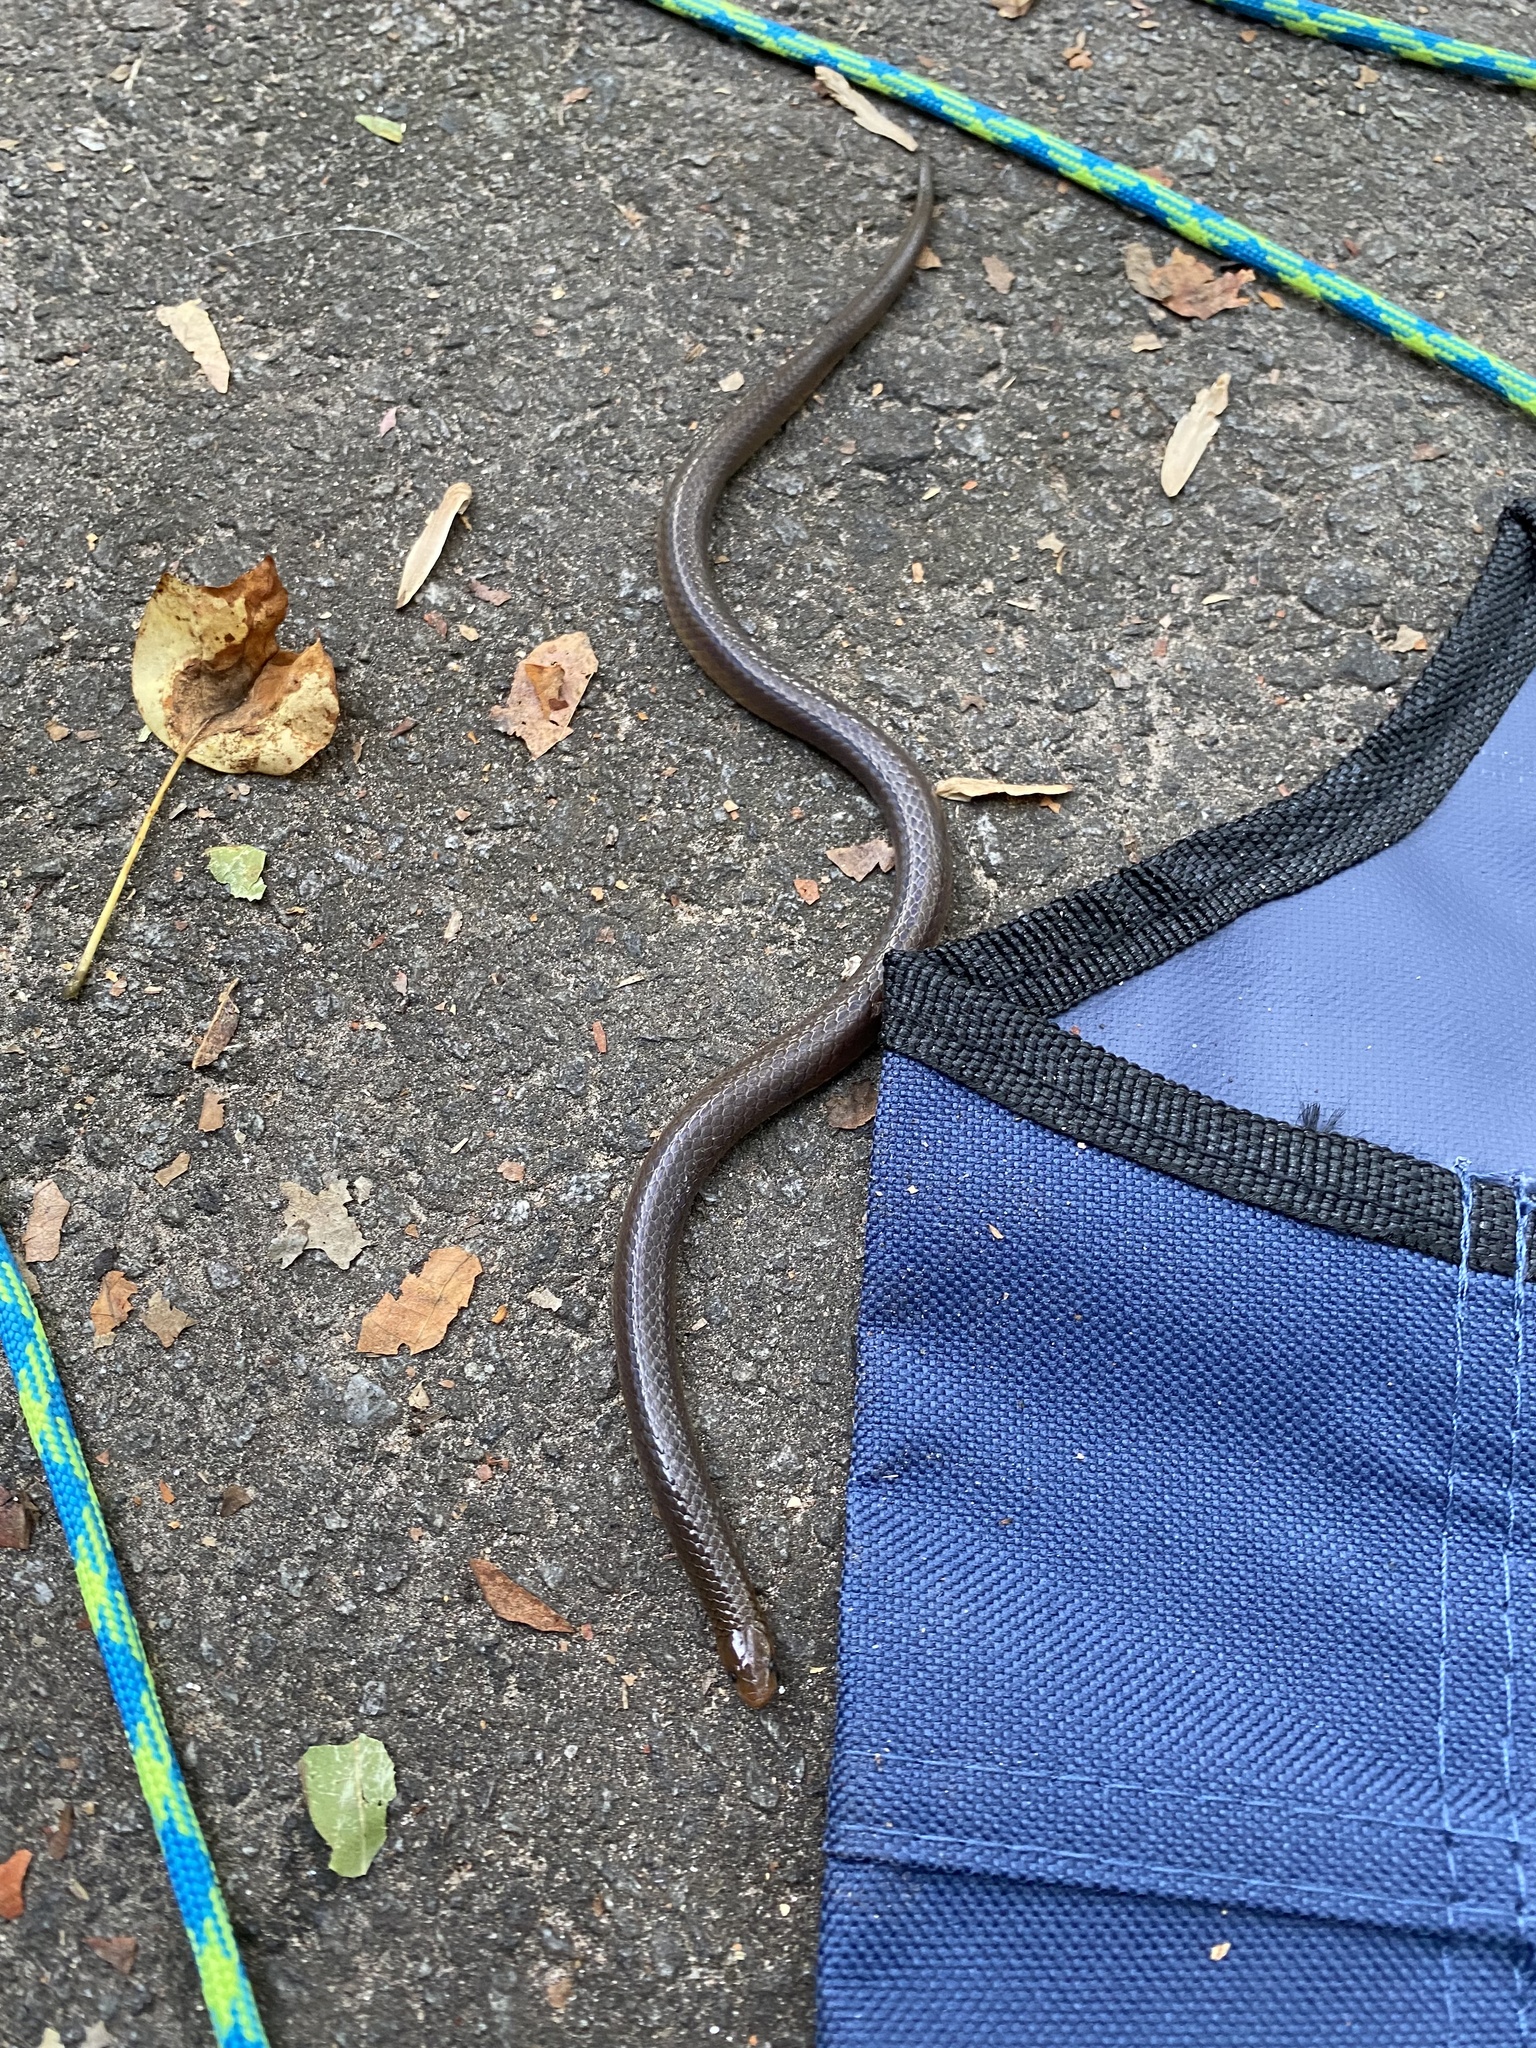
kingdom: Animalia
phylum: Chordata
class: Squamata
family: Colubridae
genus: Carphophis
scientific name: Carphophis amoenus
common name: Eastern worm snake
